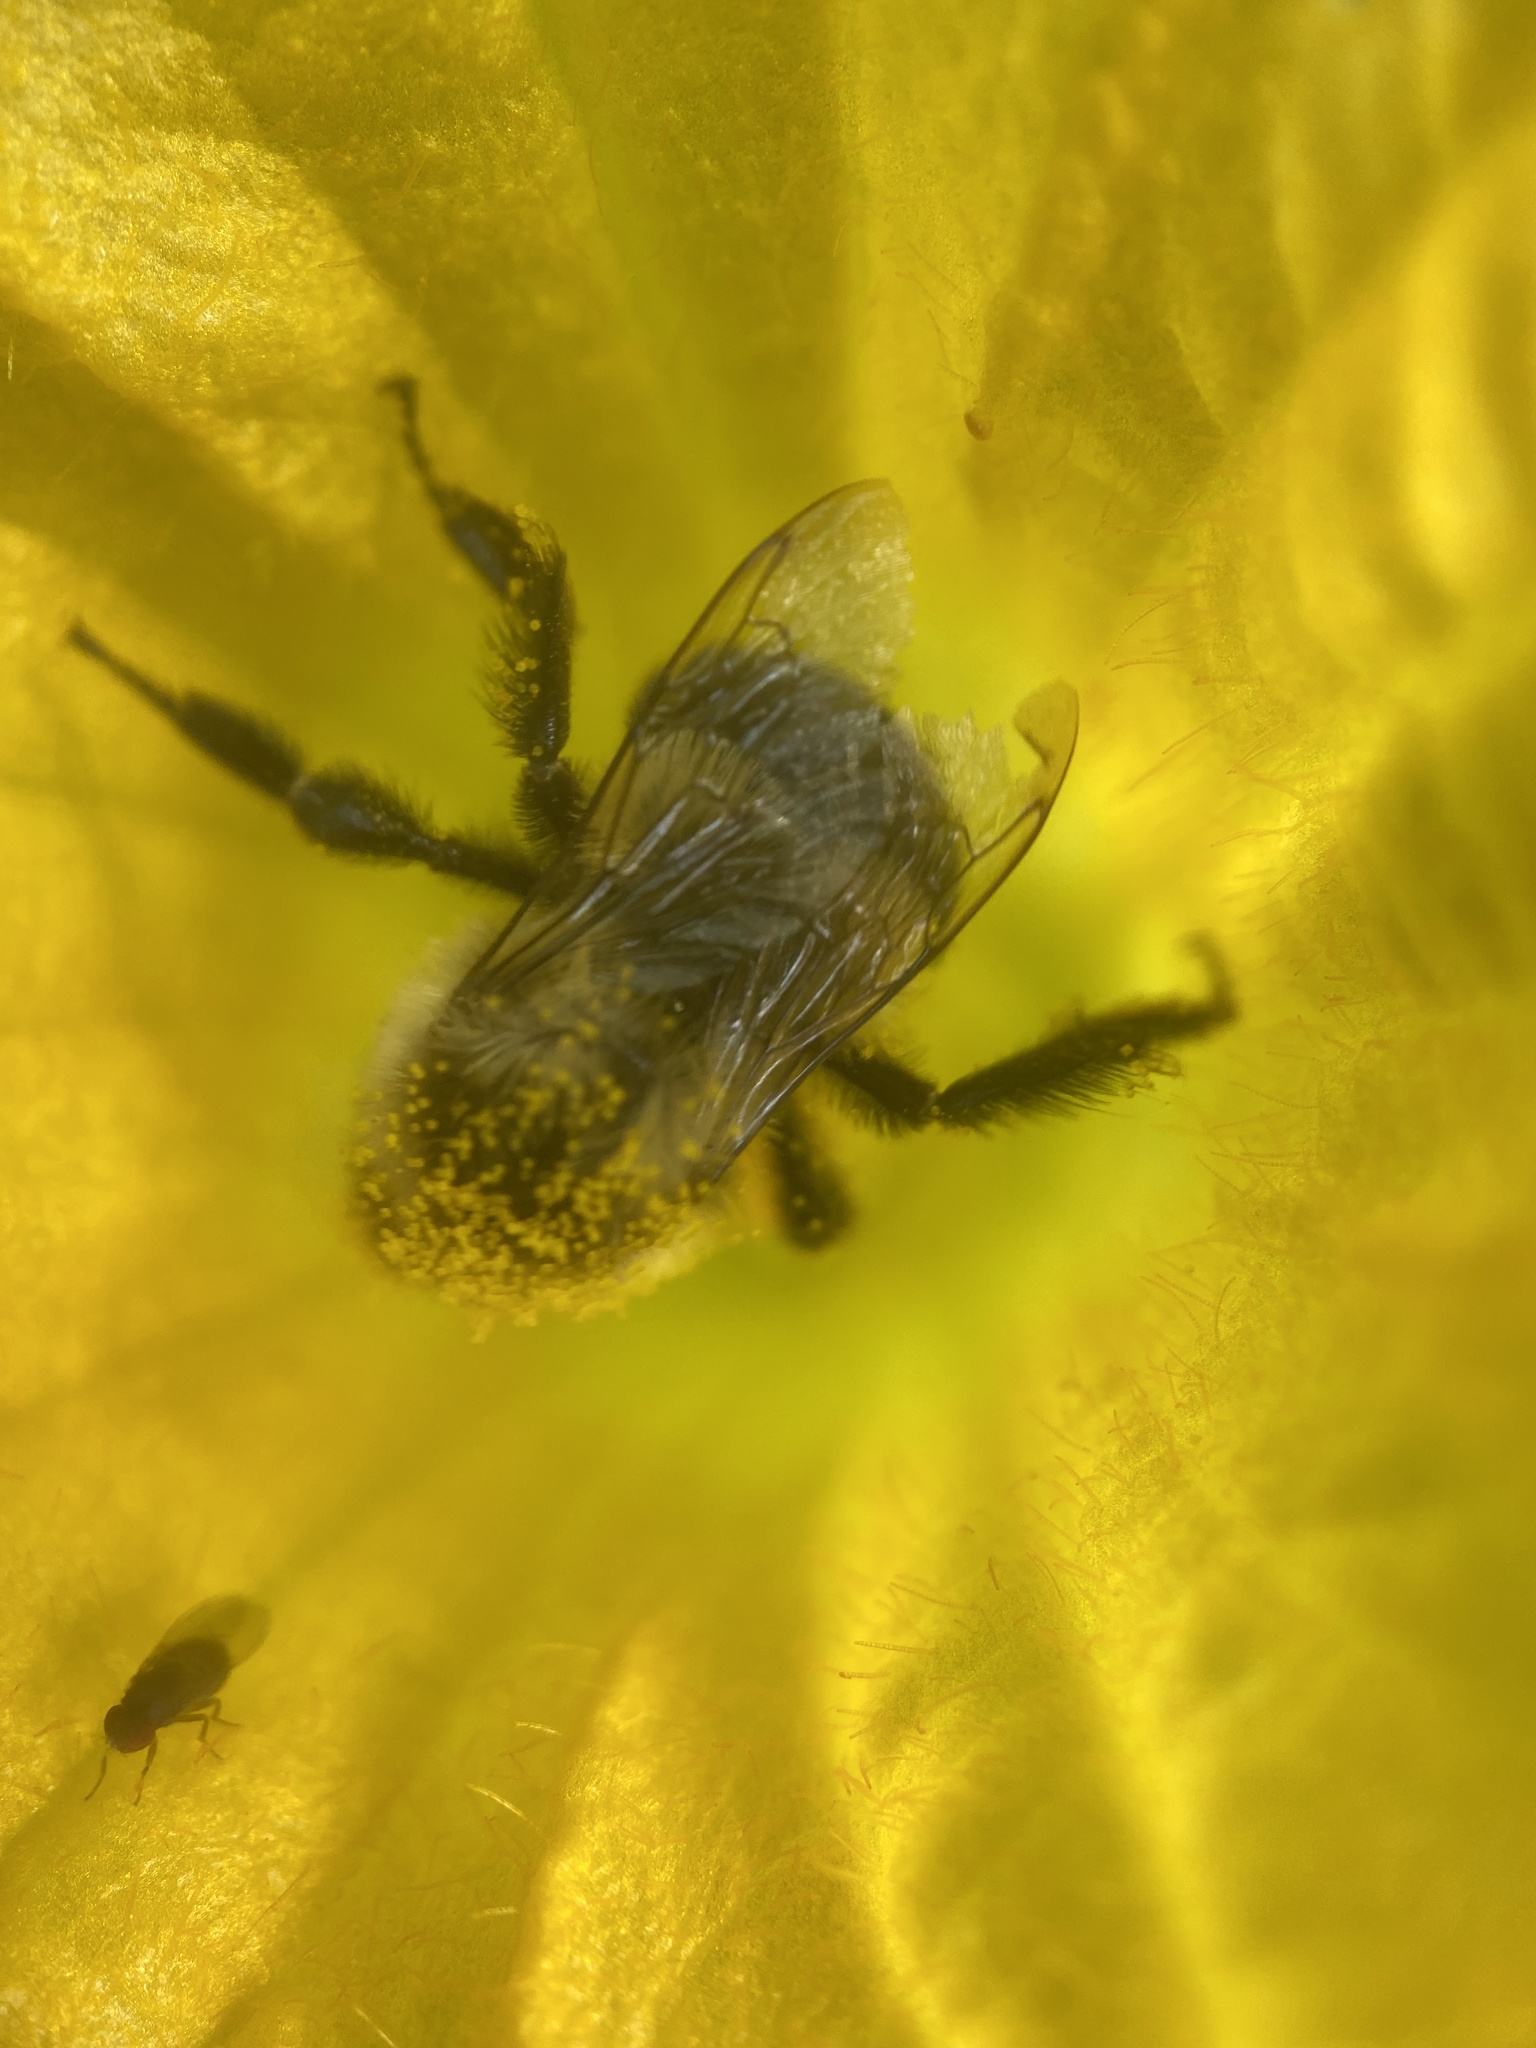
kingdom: Animalia
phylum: Arthropoda
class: Insecta
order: Hymenoptera
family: Apidae
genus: Bombus
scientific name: Bombus impatiens
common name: Common eastern bumble bee
